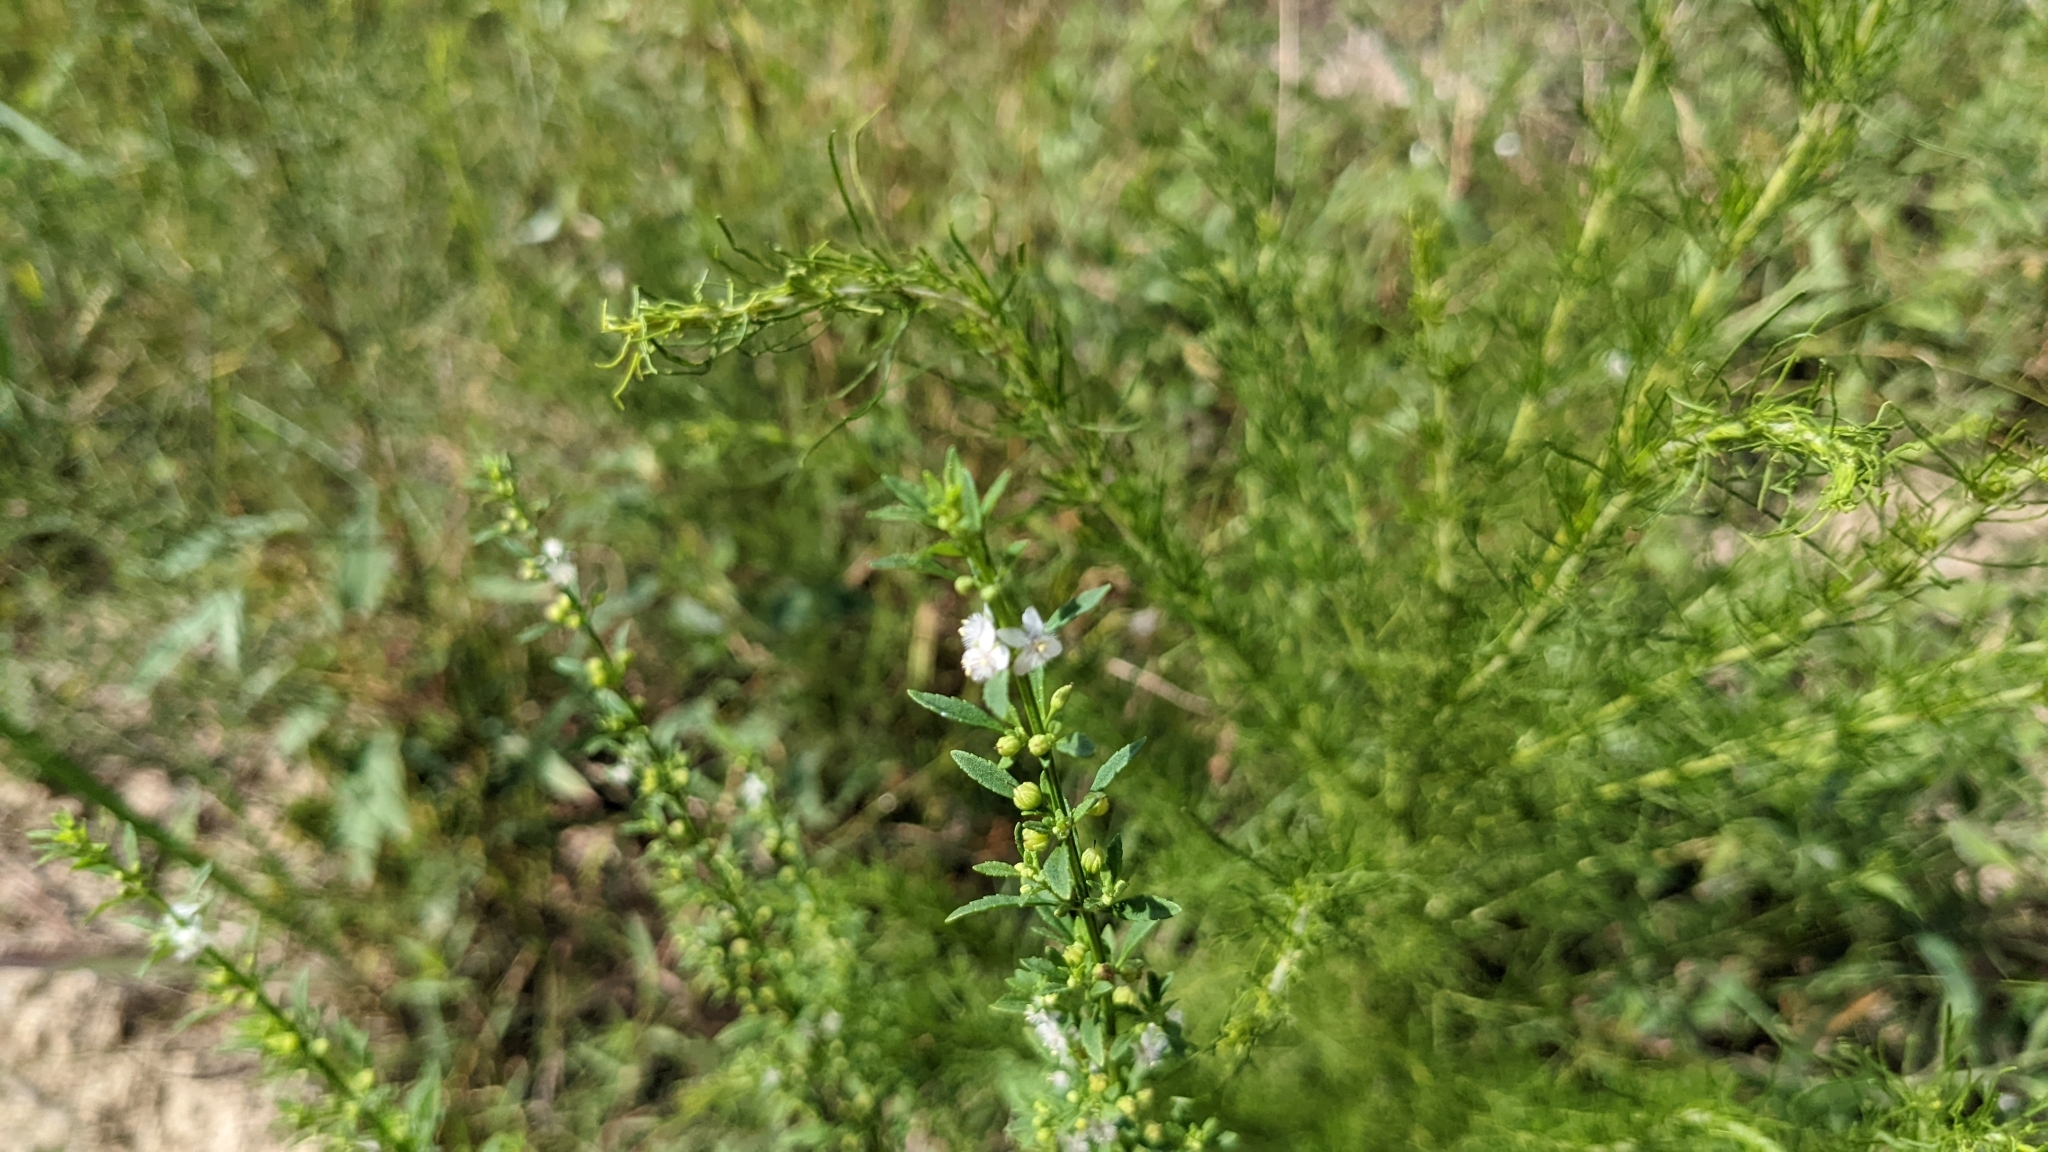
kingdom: Plantae
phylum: Tracheophyta
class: Magnoliopsida
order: Lamiales
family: Plantaginaceae
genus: Scoparia
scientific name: Scoparia dulcis
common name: Scoparia-weed
